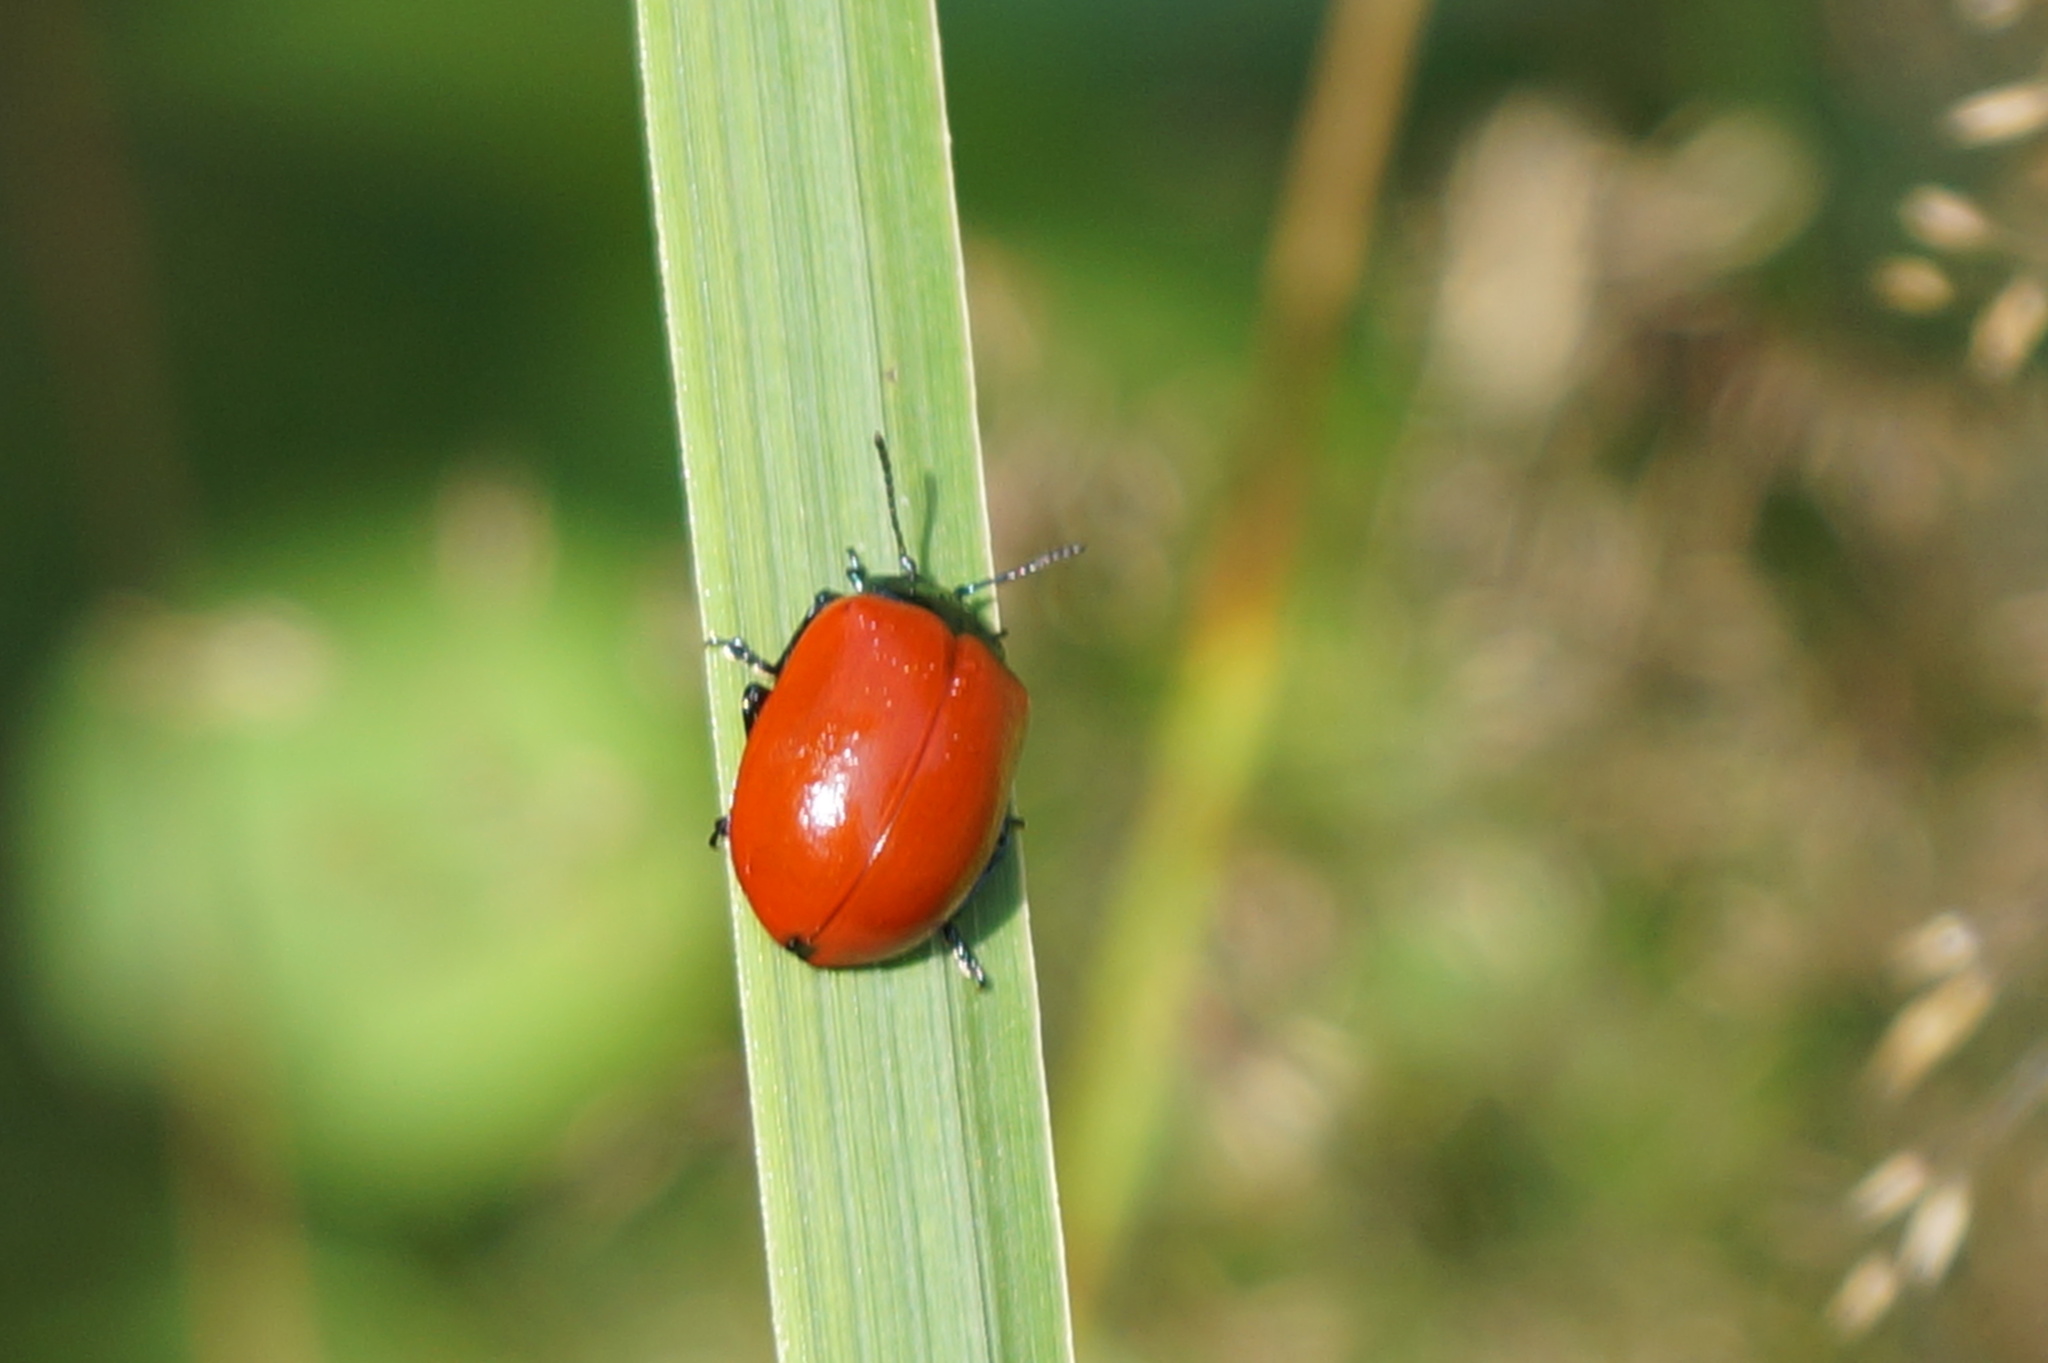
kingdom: Animalia
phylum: Arthropoda
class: Insecta
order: Coleoptera
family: Chrysomelidae
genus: Chrysomela
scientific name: Chrysomela populi
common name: Red poplar leaf beetle
